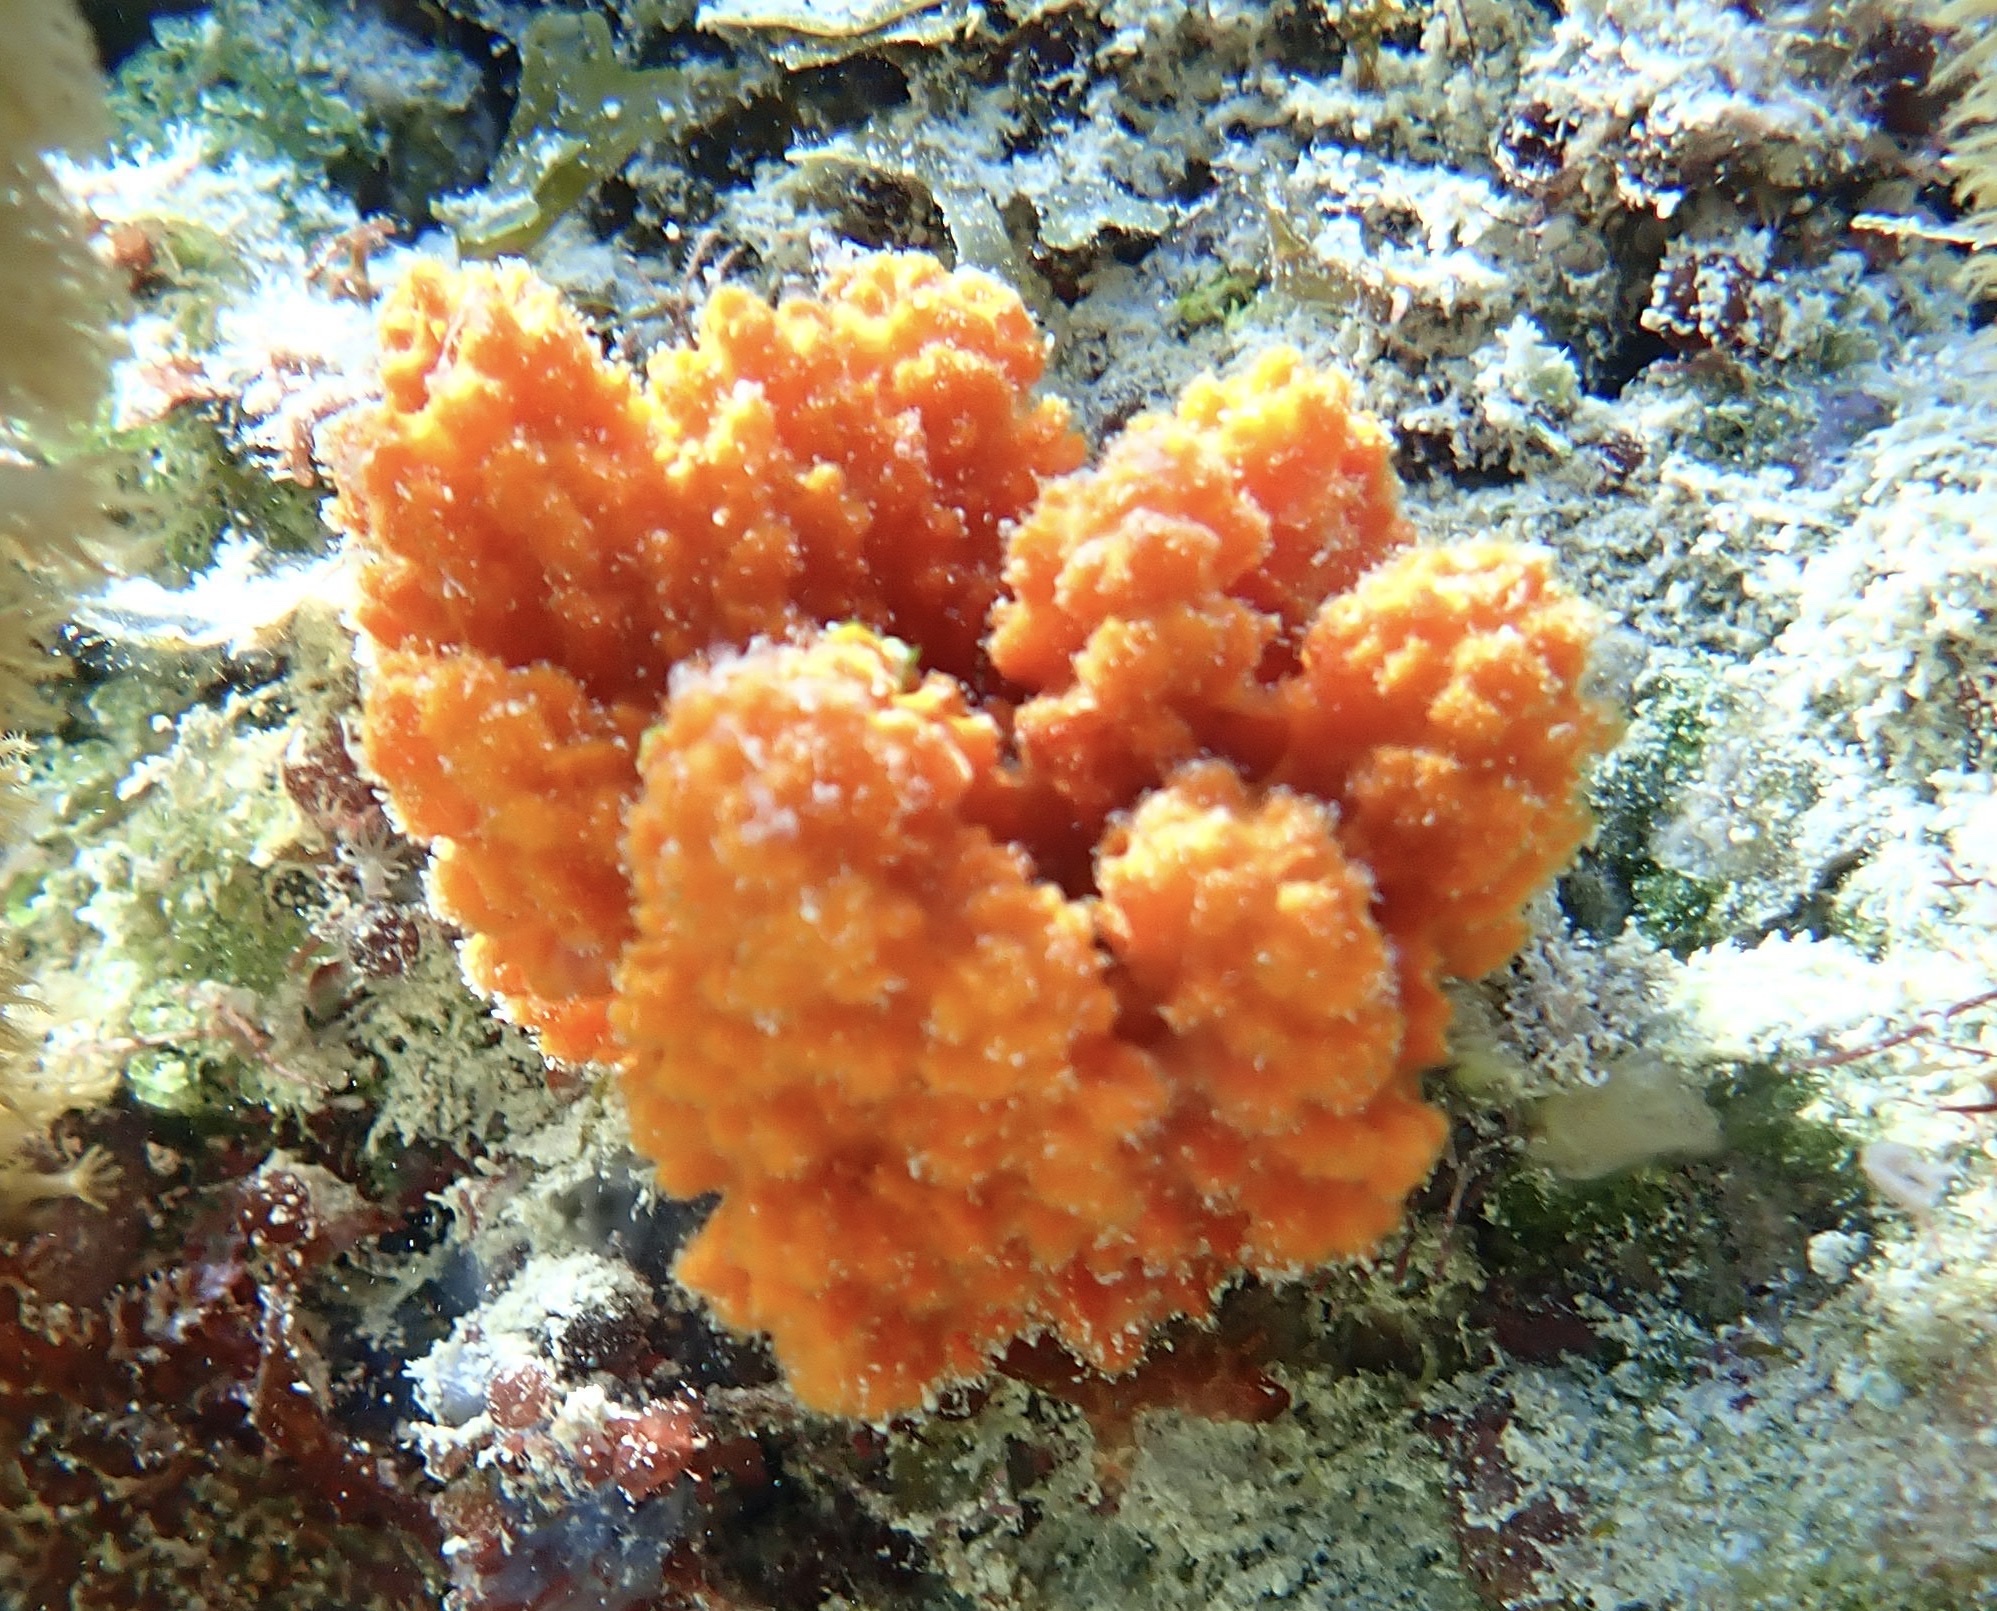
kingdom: Animalia
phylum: Porifera
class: Demospongiae
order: Axinellida
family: Axinellidae
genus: Ptilocaulis
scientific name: Ptilocaulis walpersii
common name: Red tree sponge
